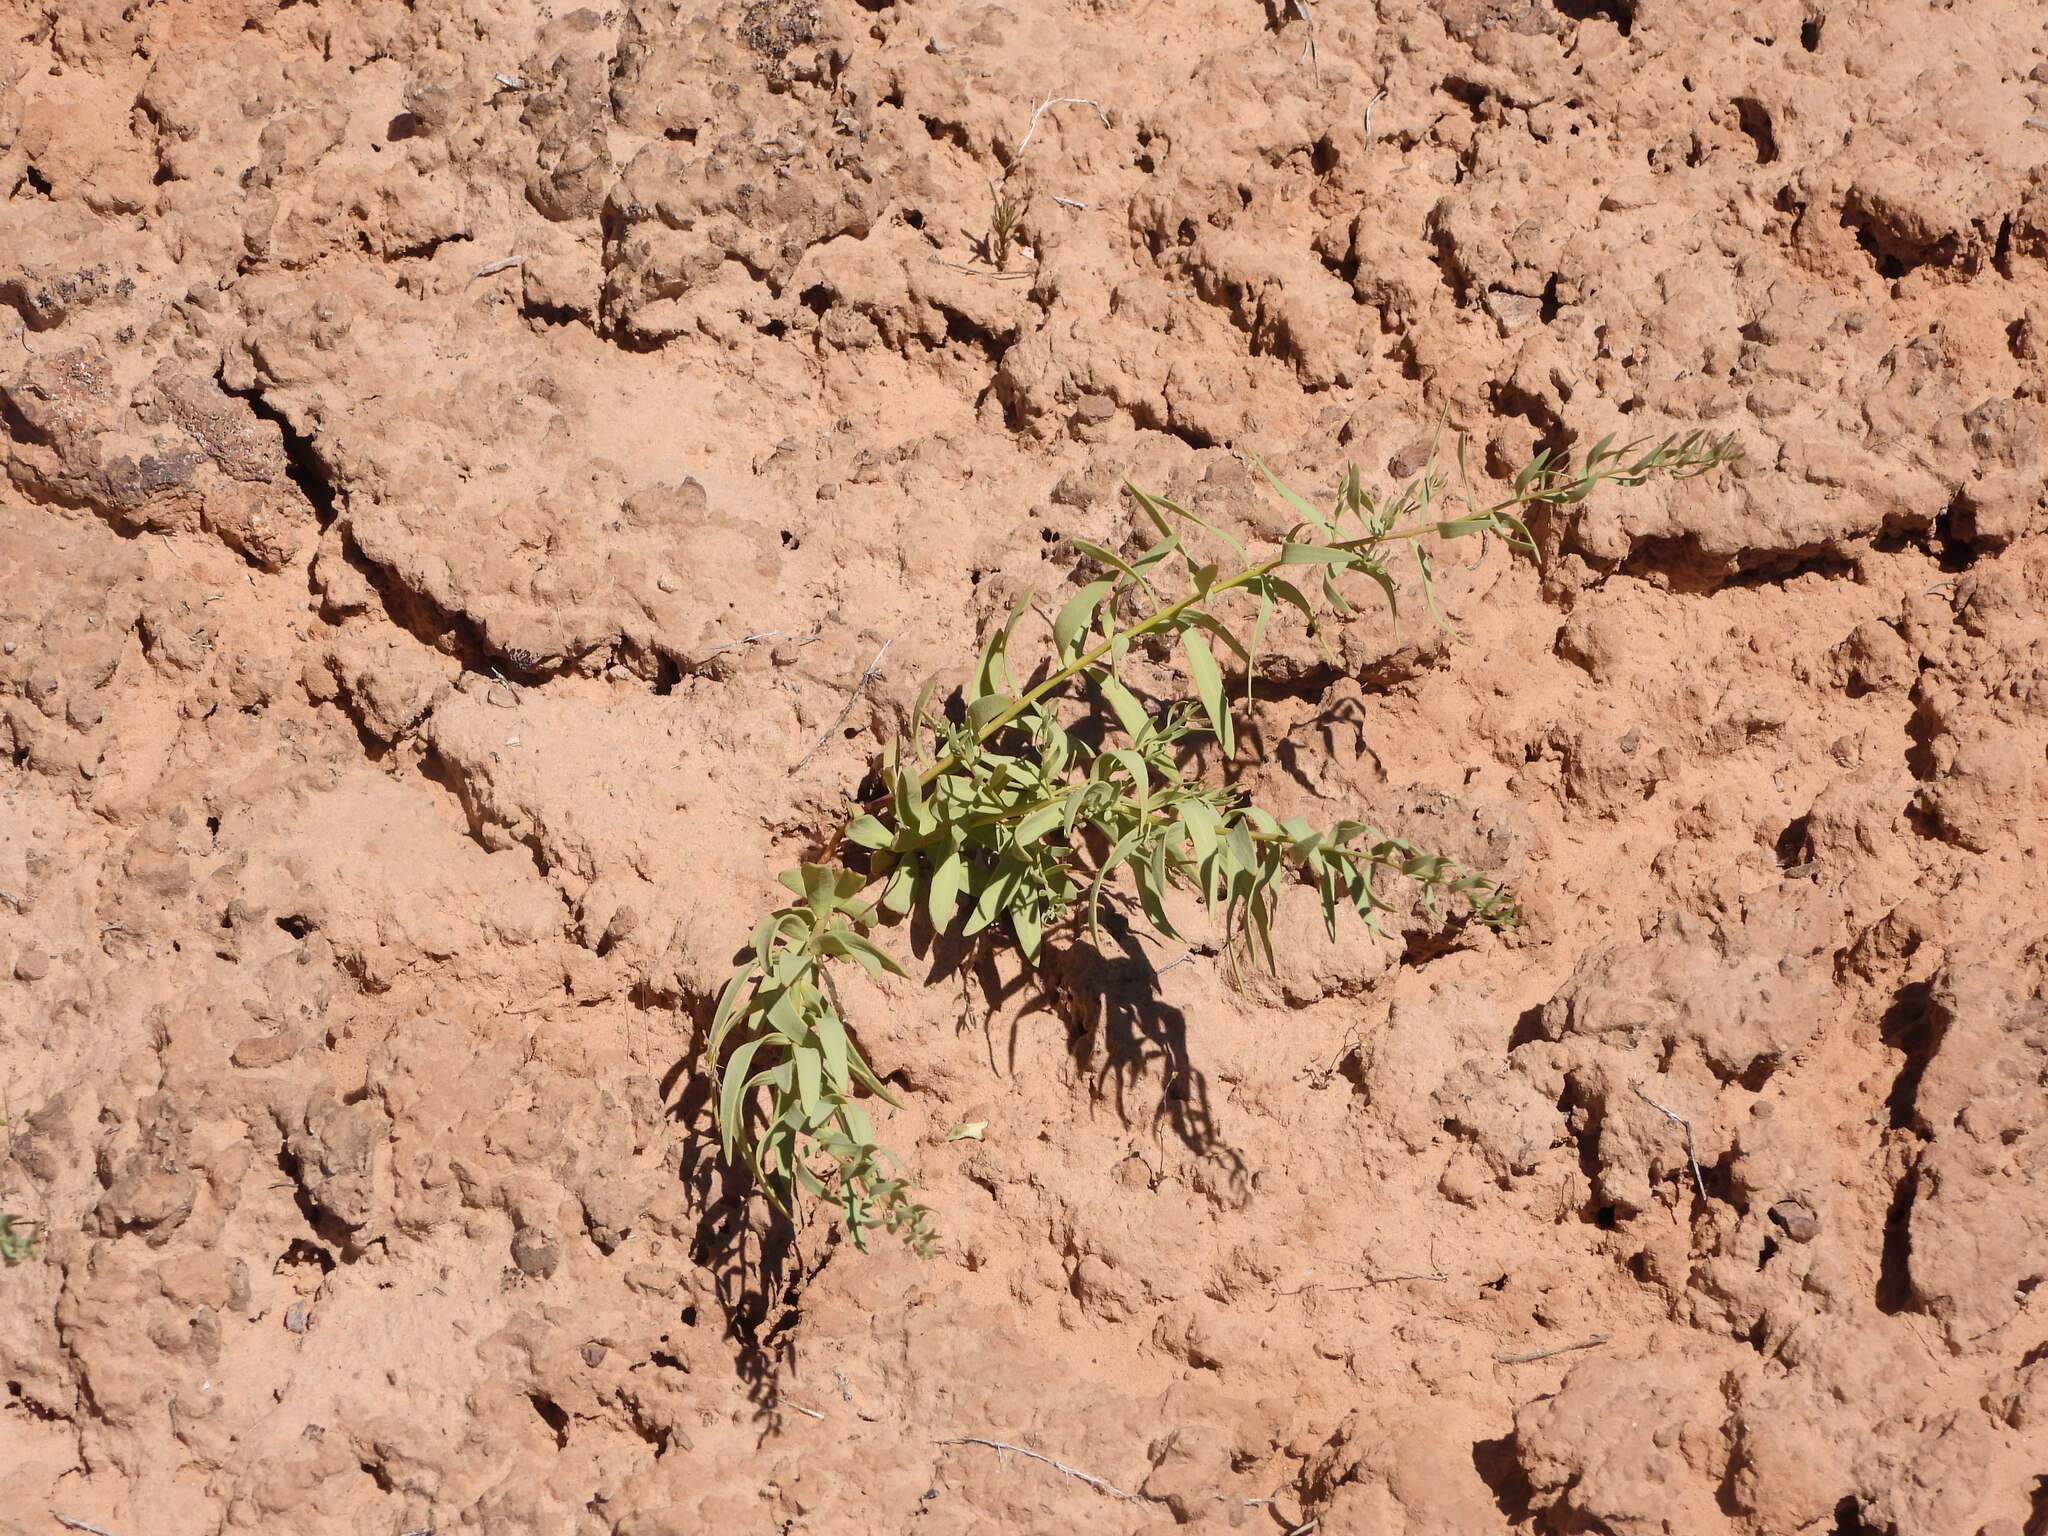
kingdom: Plantae
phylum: Tracheophyta
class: Magnoliopsida
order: Santalales
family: Comandraceae
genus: Comandra
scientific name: Comandra umbellata
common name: Bastard toadflax
